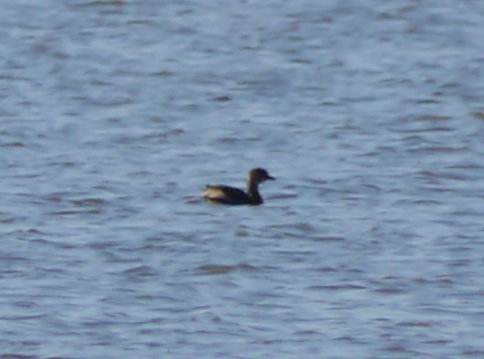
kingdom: Animalia
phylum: Chordata
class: Aves
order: Podicipediformes
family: Podicipedidae
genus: Podilymbus
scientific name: Podilymbus podiceps
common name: Pied-billed grebe
